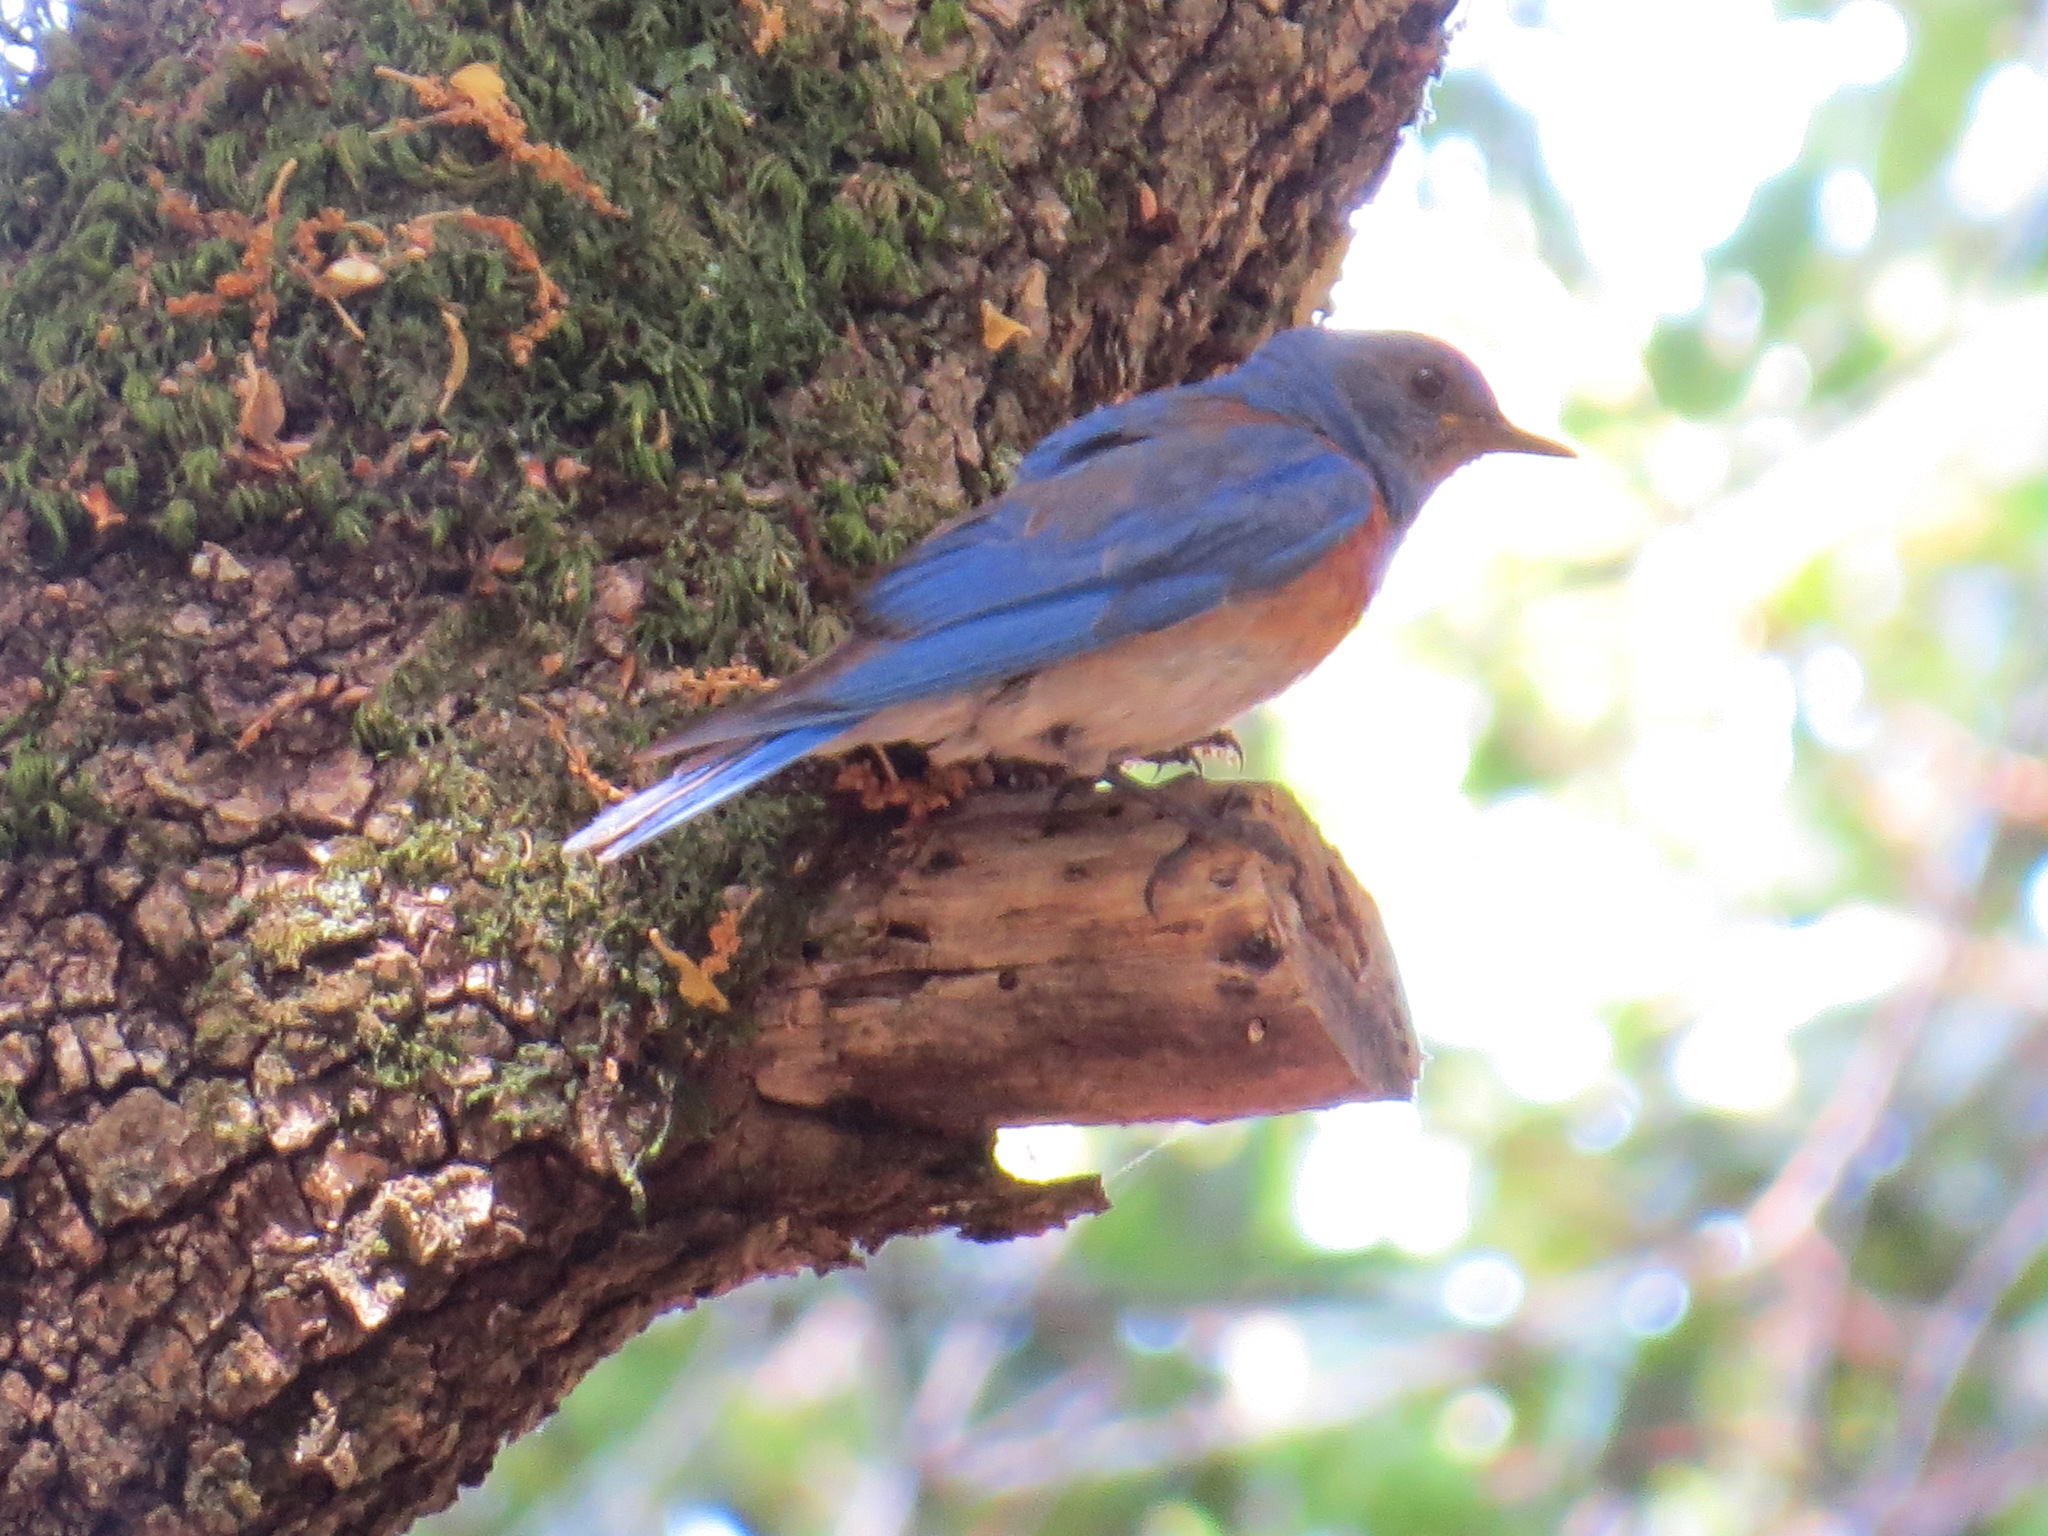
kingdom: Animalia
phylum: Chordata
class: Aves
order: Passeriformes
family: Turdidae
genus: Sialia
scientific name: Sialia mexicana
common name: Western bluebird
